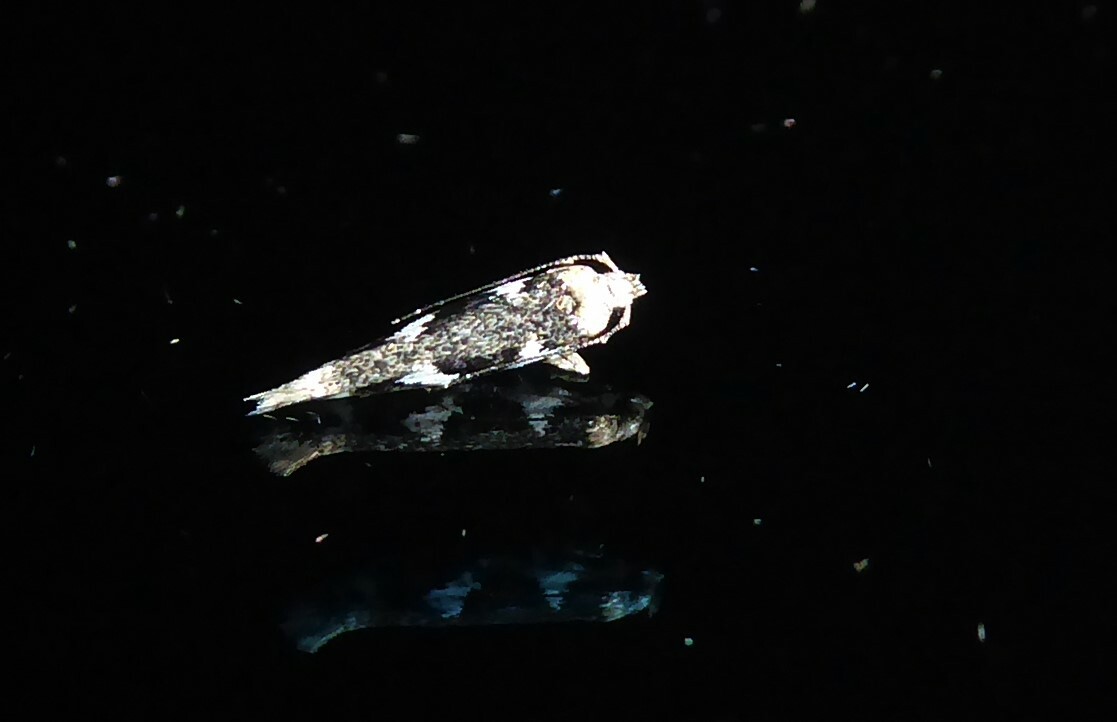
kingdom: Animalia
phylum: Arthropoda
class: Insecta
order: Lepidoptera
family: Cosmopterigidae
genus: Pyroderces
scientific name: Pyroderces deamatella
